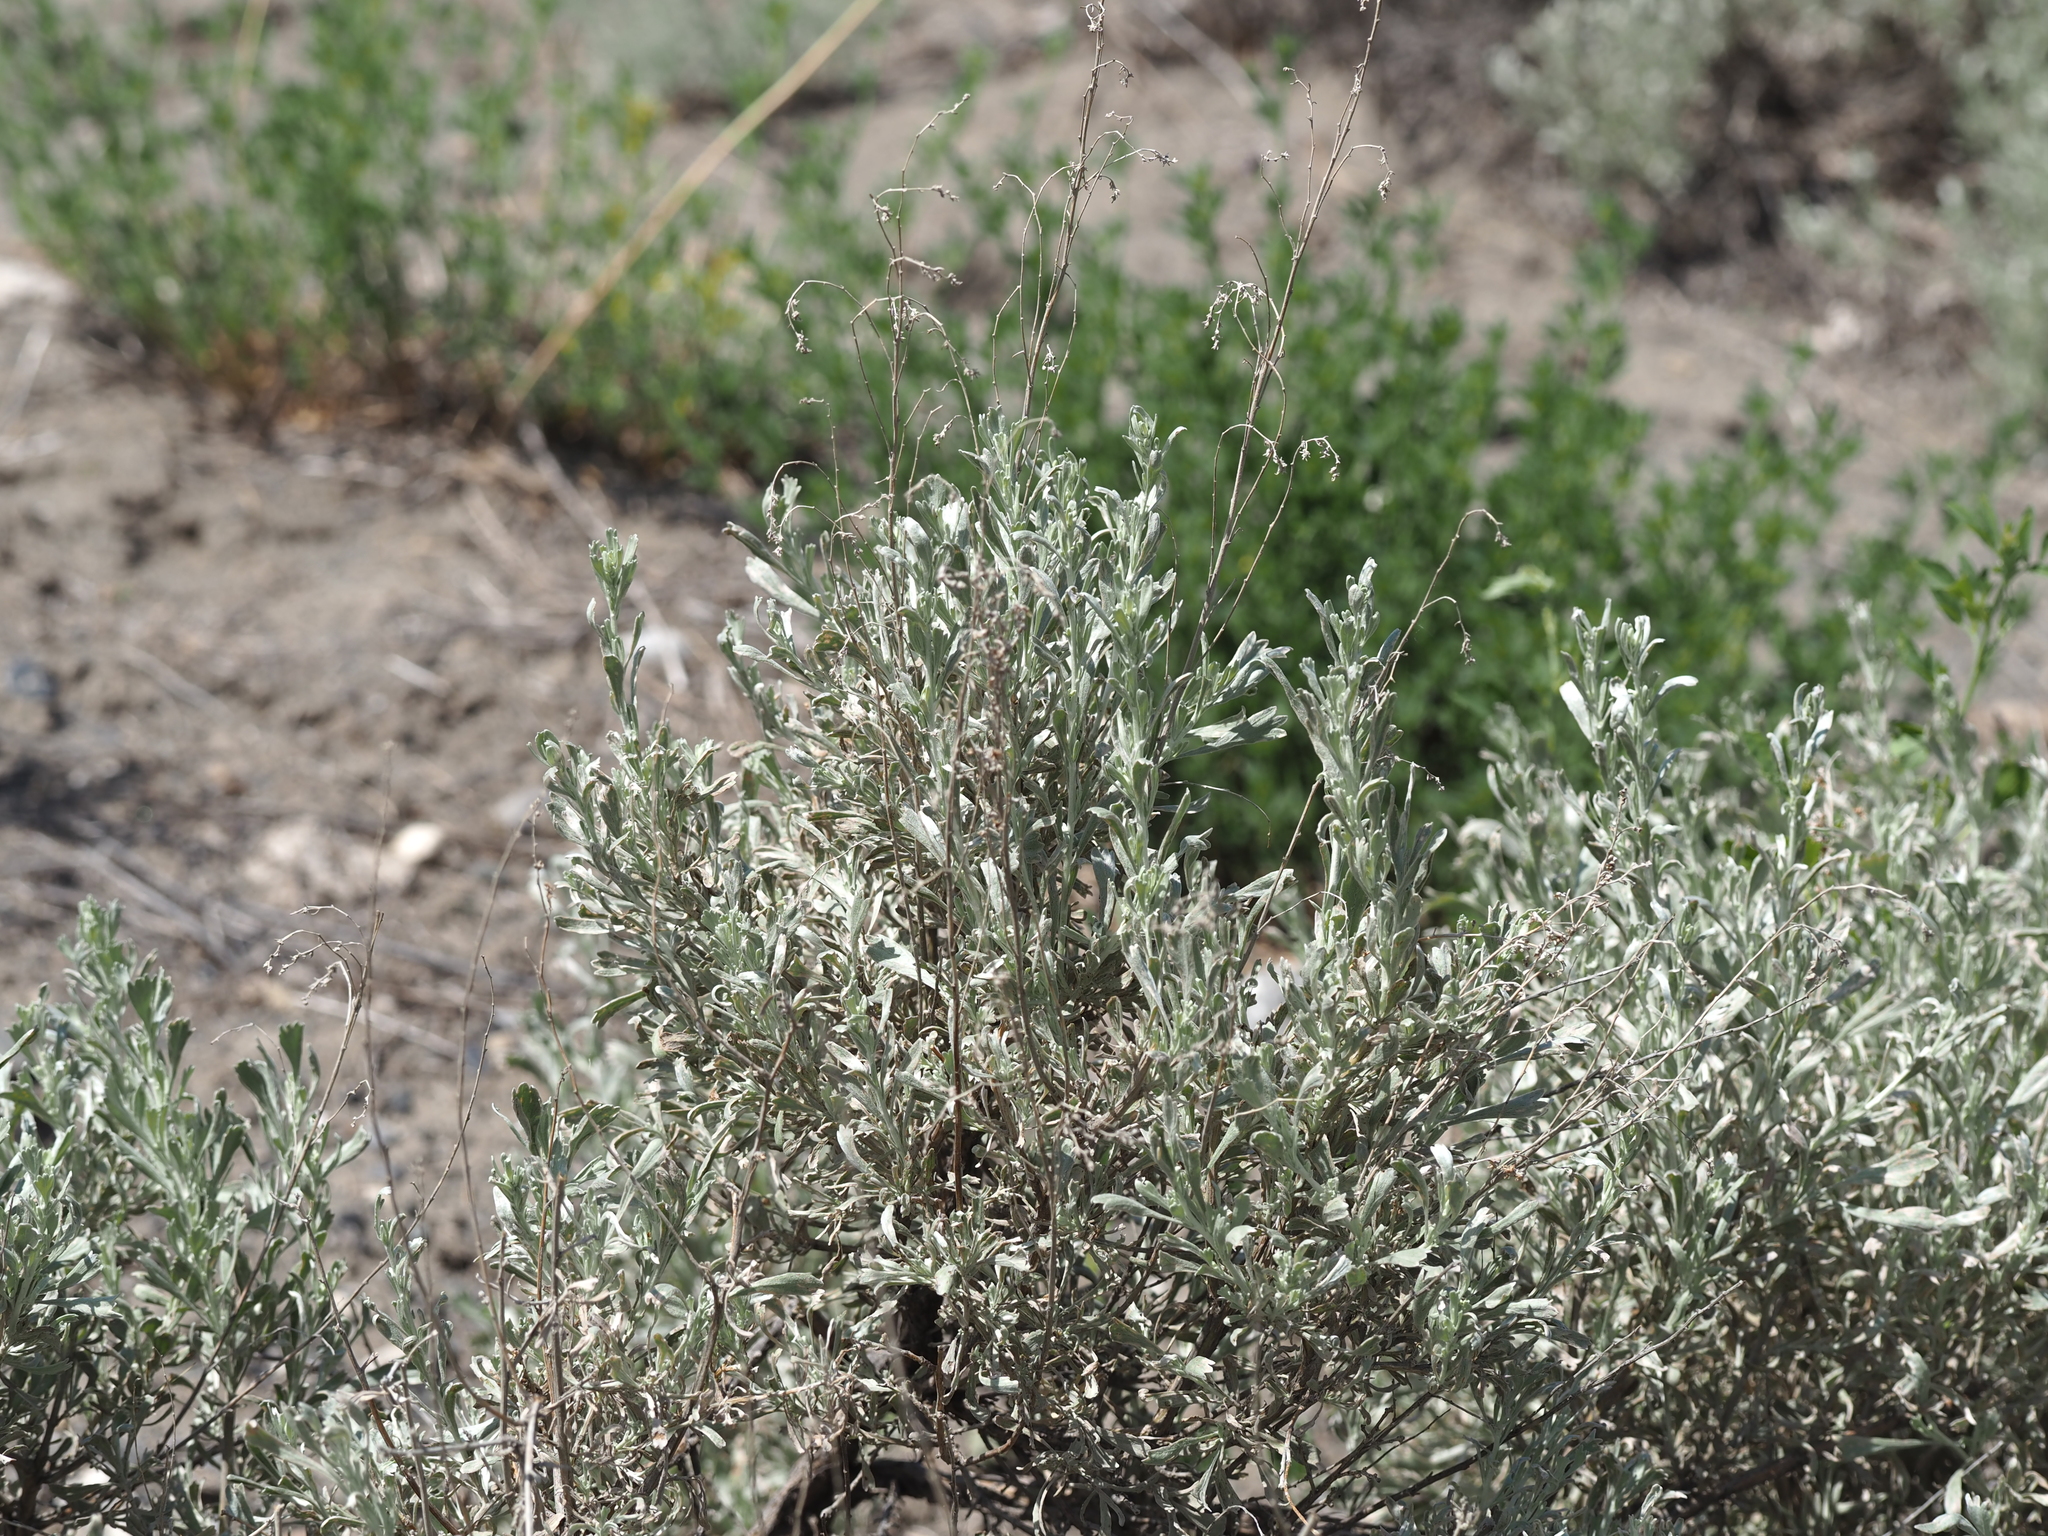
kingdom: Plantae
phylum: Tracheophyta
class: Magnoliopsida
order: Asterales
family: Asteraceae
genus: Artemisia
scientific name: Artemisia tridentata
